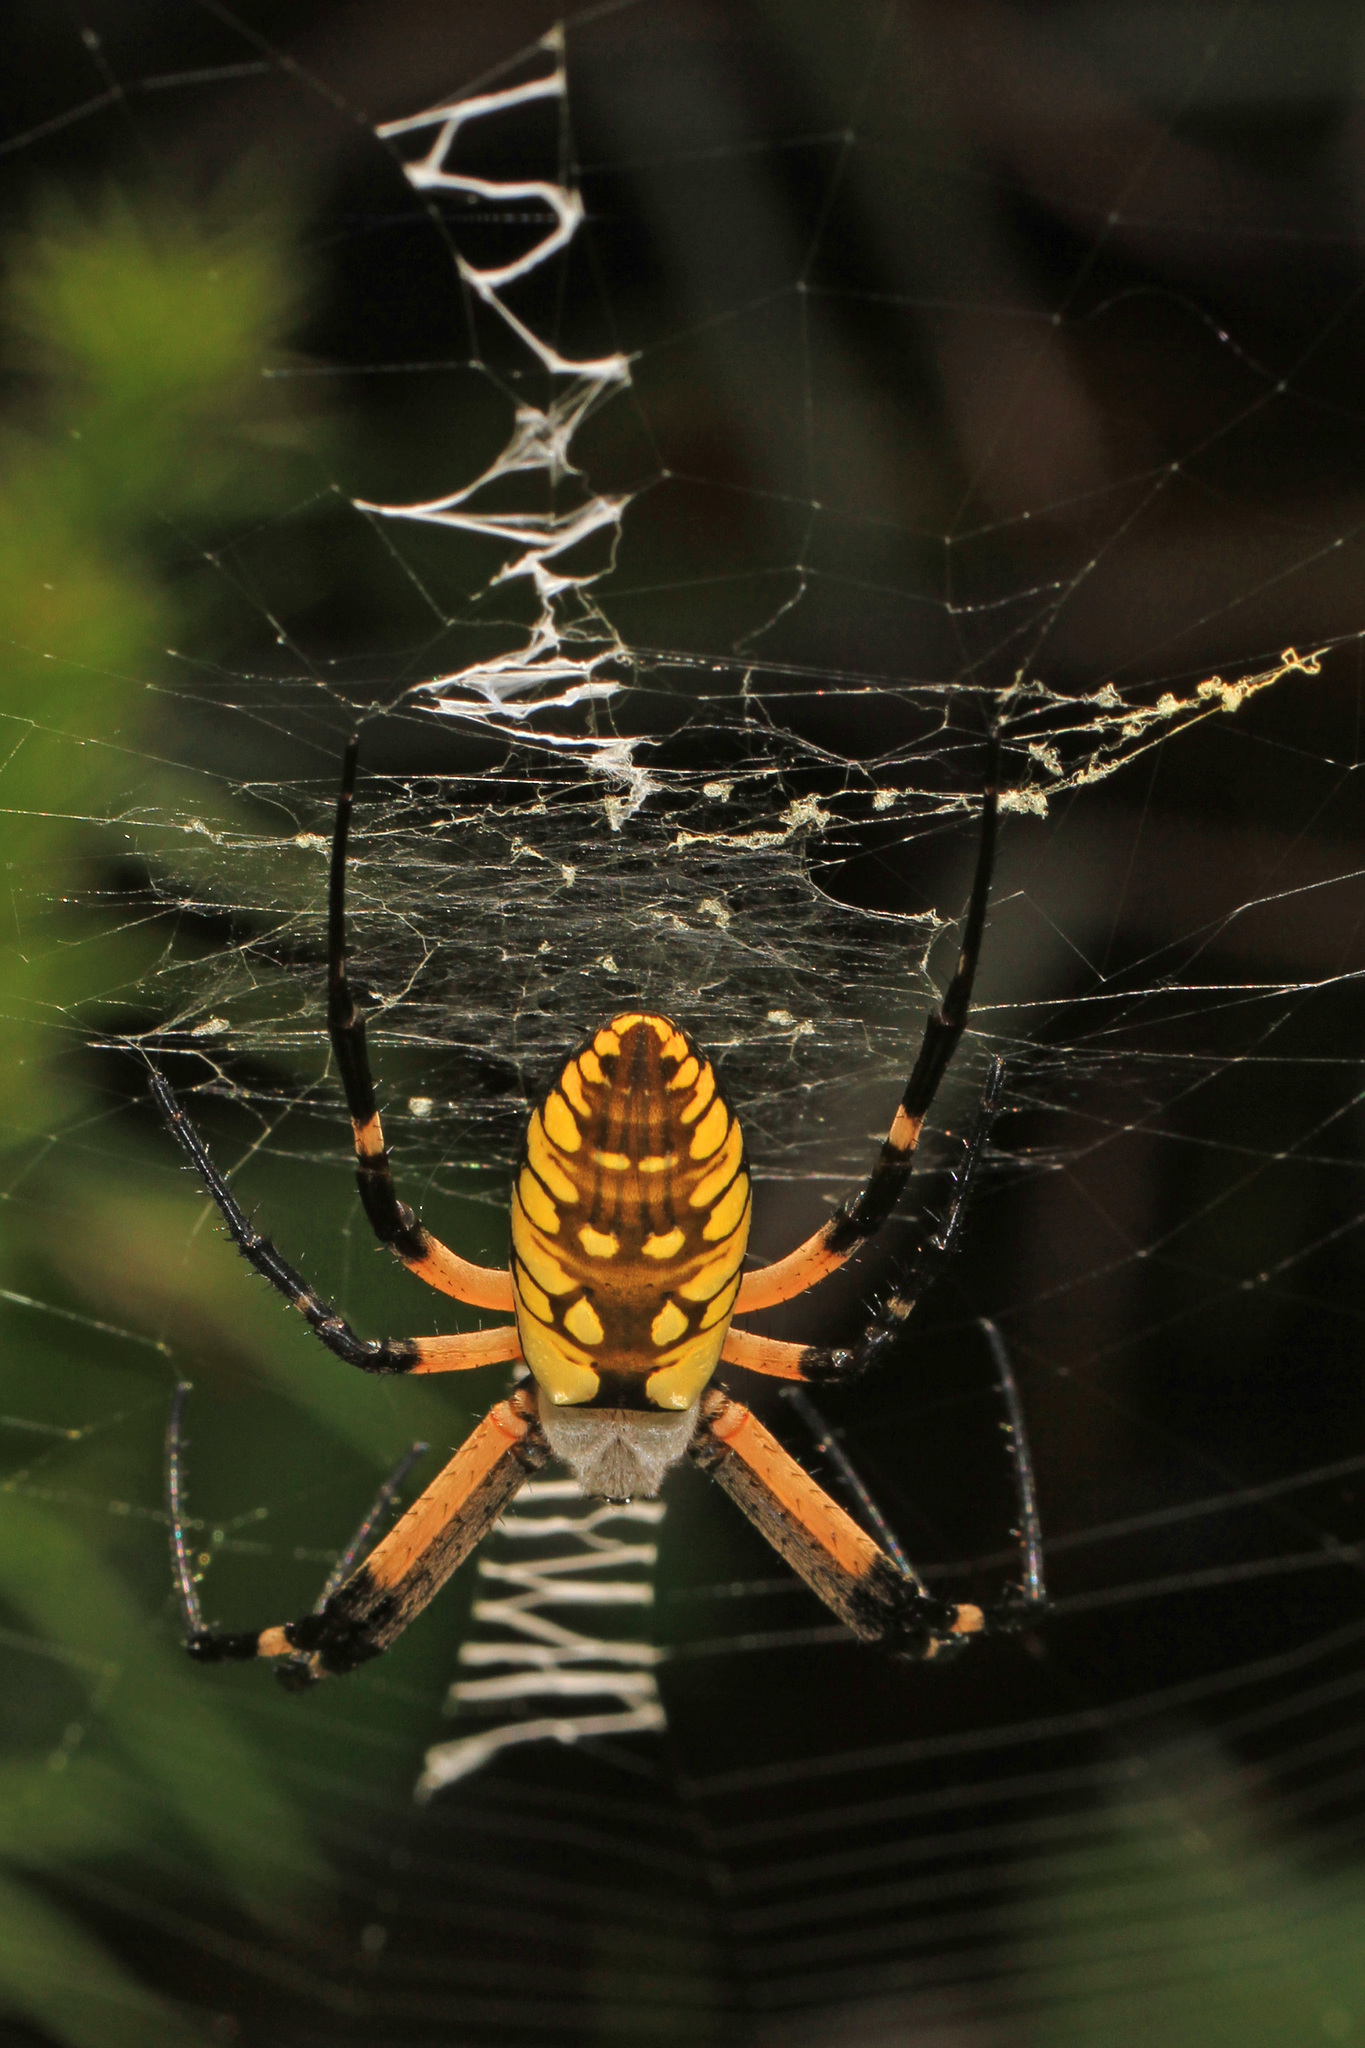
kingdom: Animalia
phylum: Arthropoda
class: Arachnida
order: Araneae
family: Araneidae
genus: Argiope
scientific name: Argiope aurantia
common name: Orb weavers
